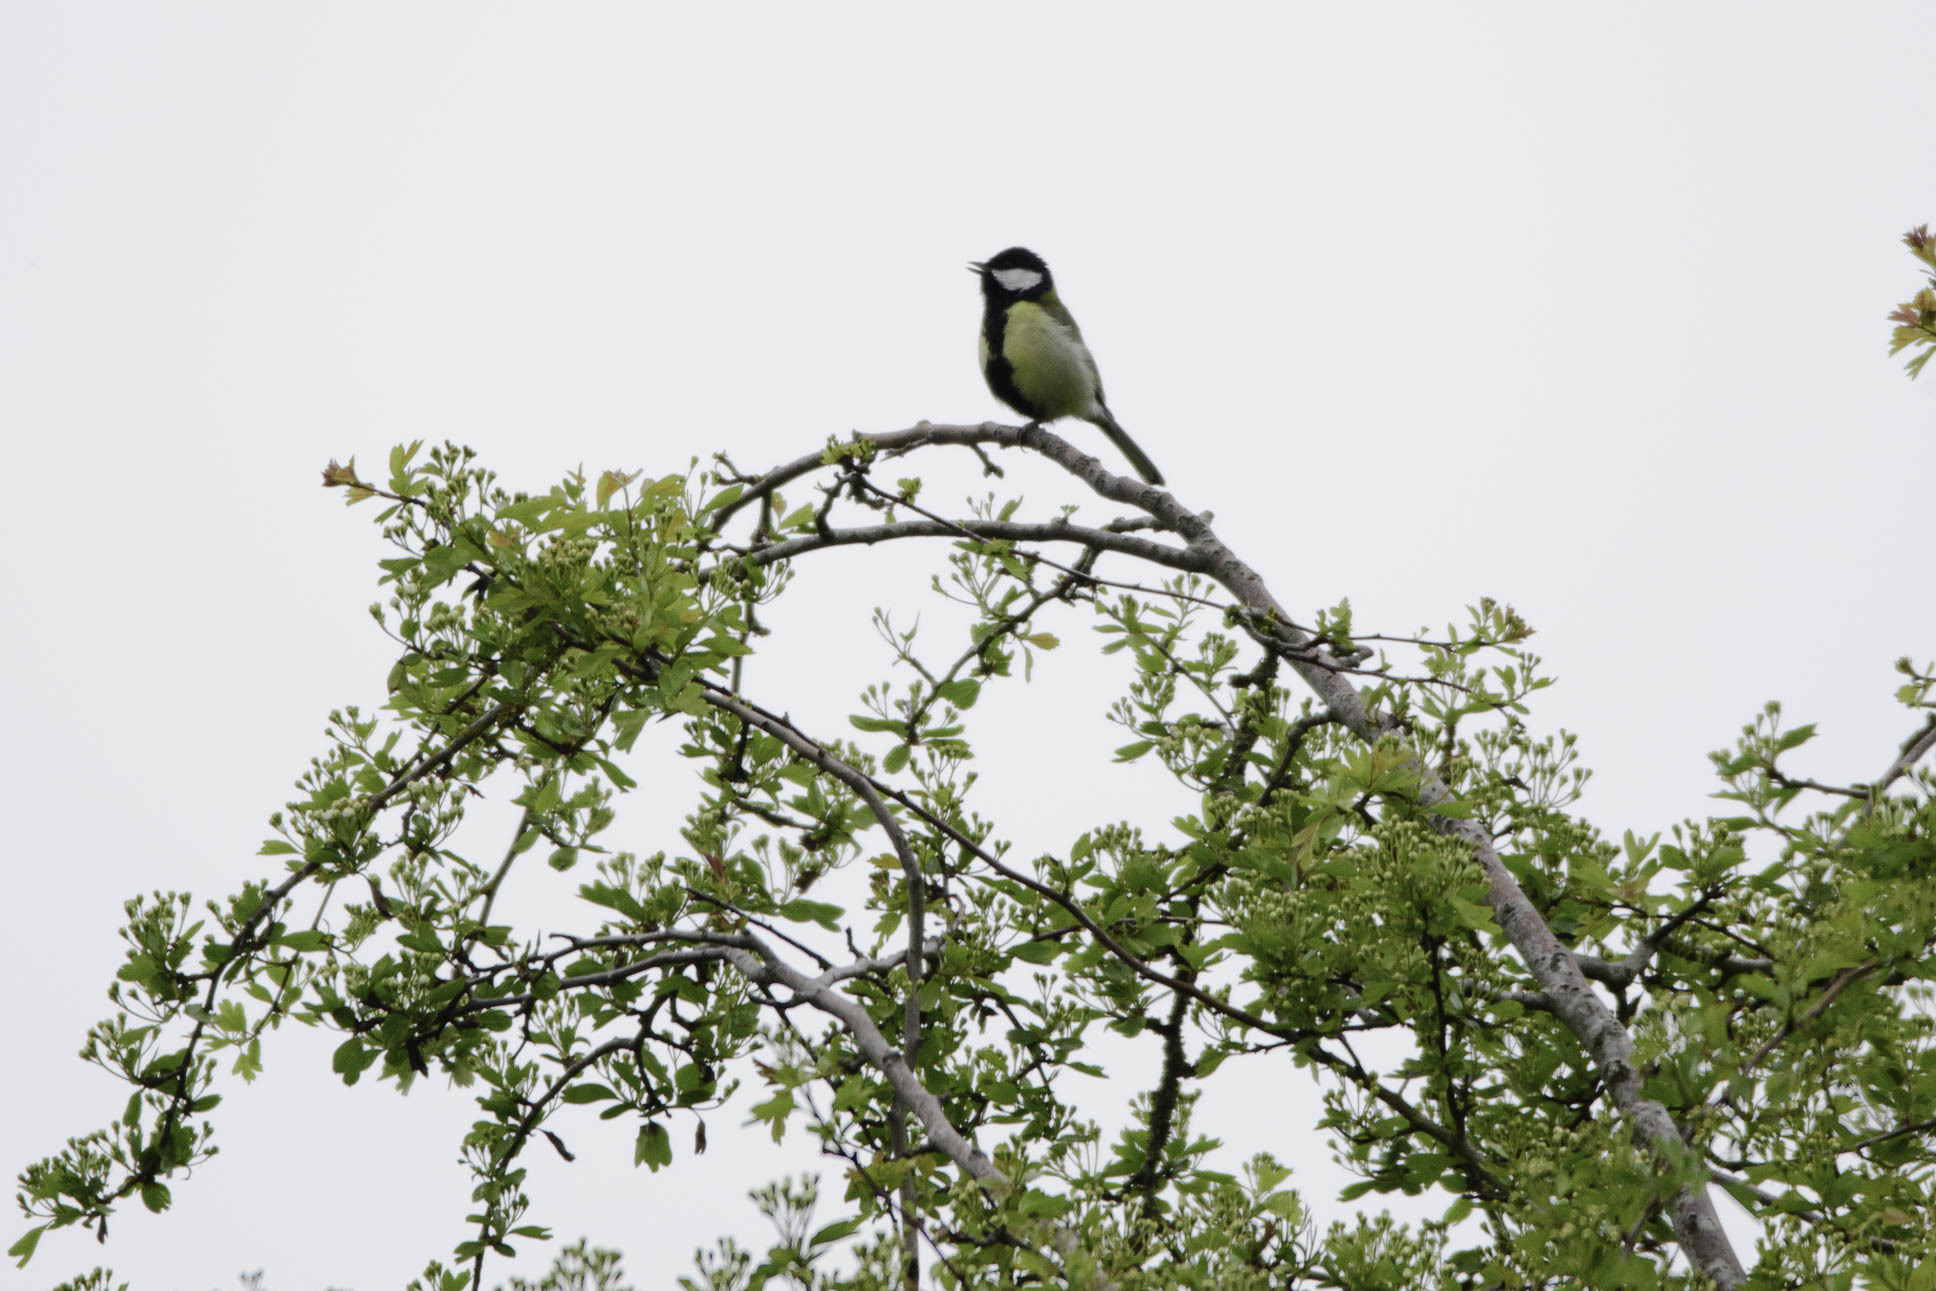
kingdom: Animalia
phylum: Chordata
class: Aves
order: Passeriformes
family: Paridae
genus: Parus
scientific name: Parus major
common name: Great tit
